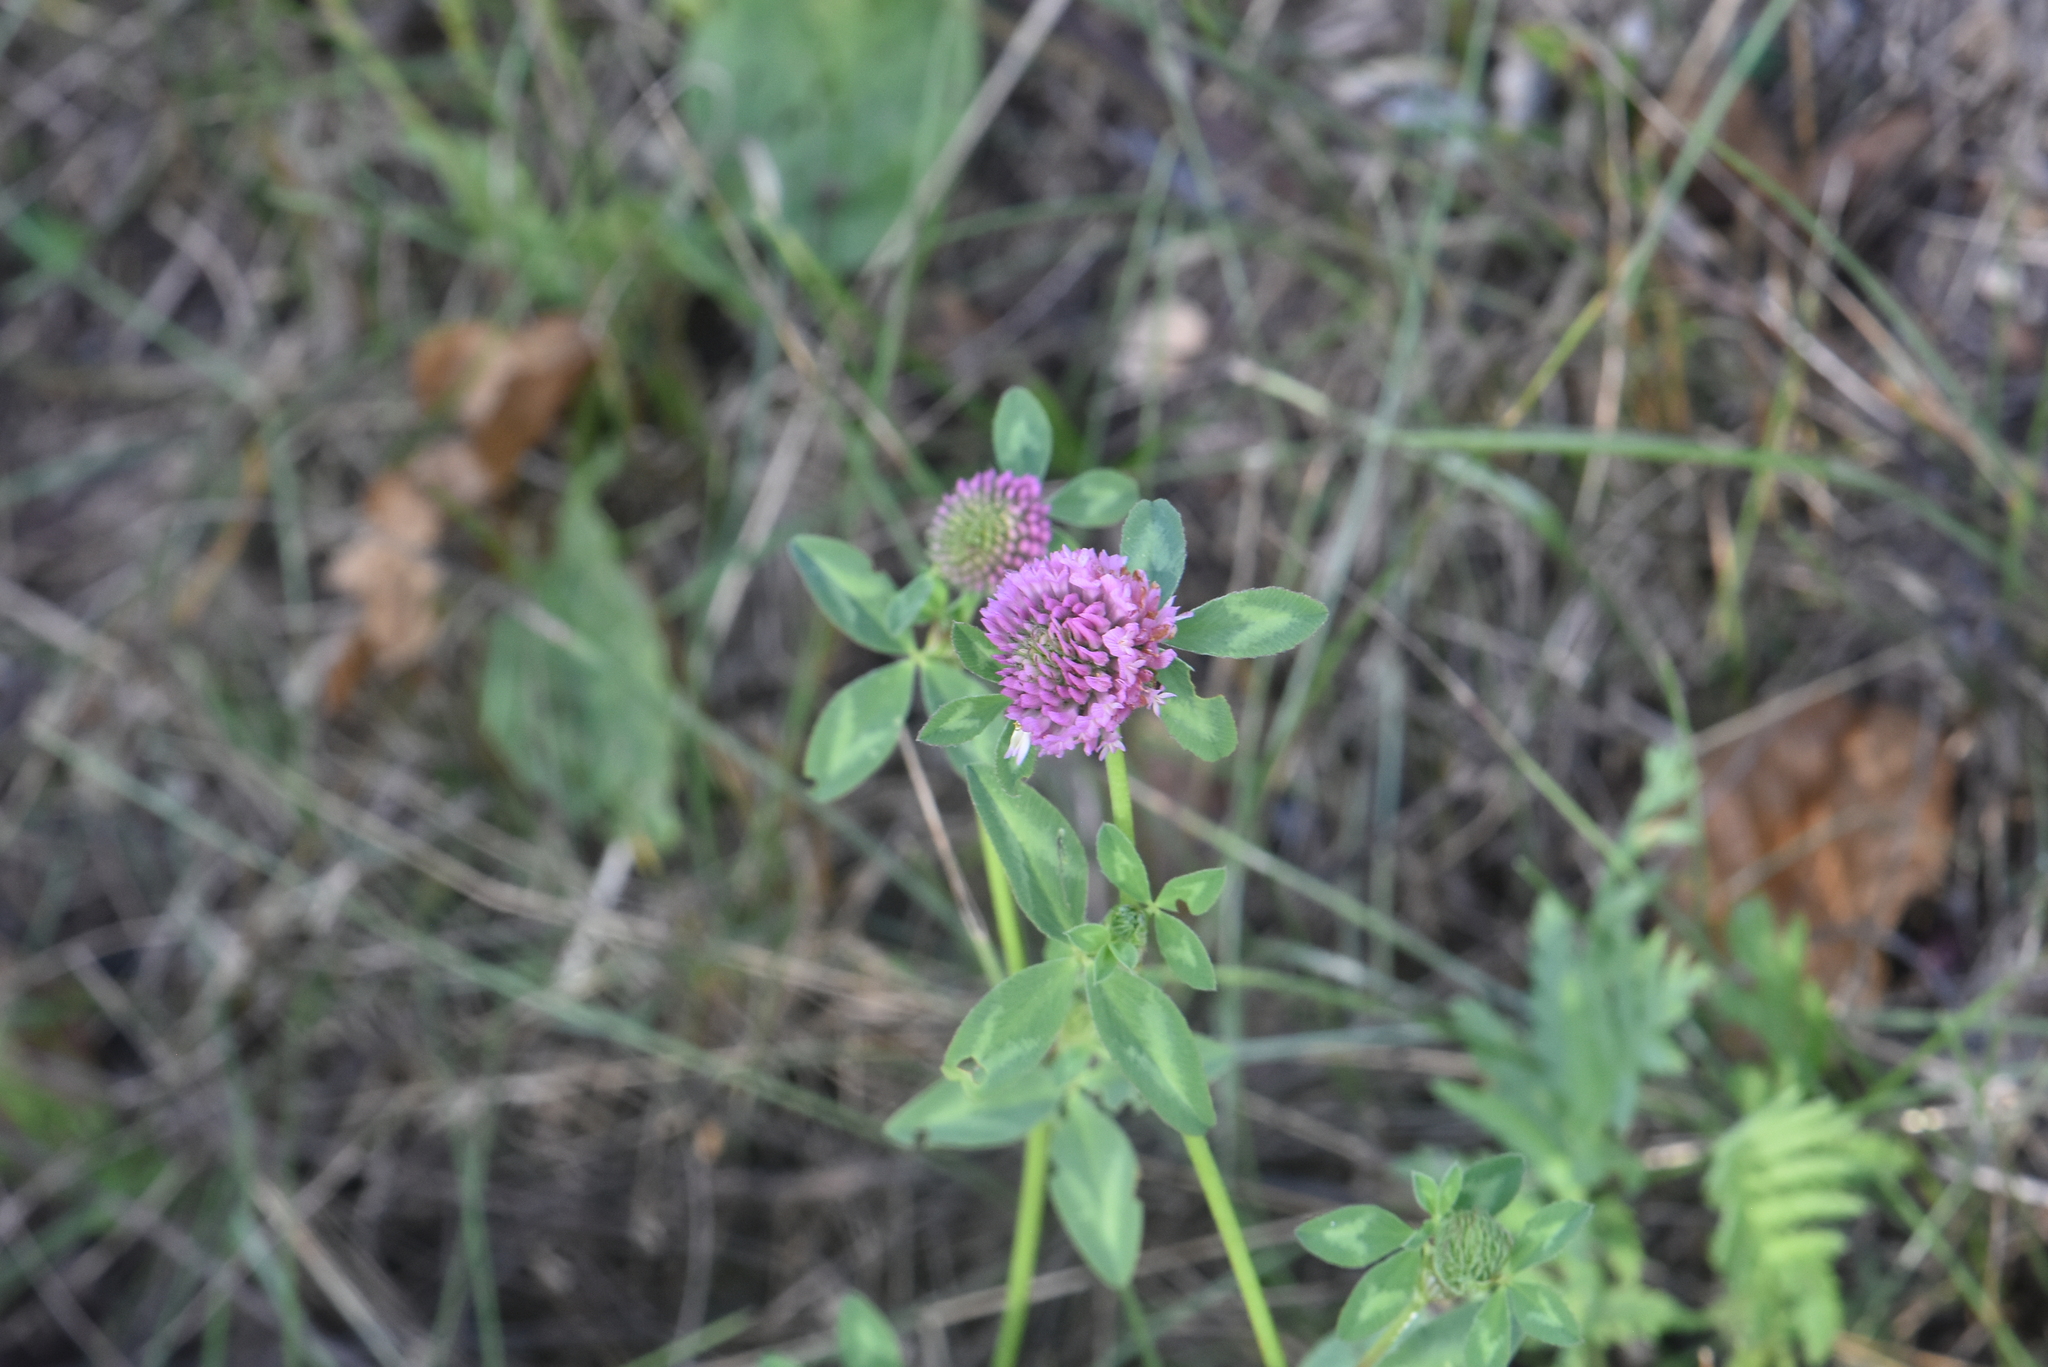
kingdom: Plantae
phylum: Tracheophyta
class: Magnoliopsida
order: Fabales
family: Fabaceae
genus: Trifolium
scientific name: Trifolium pratense
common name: Red clover
